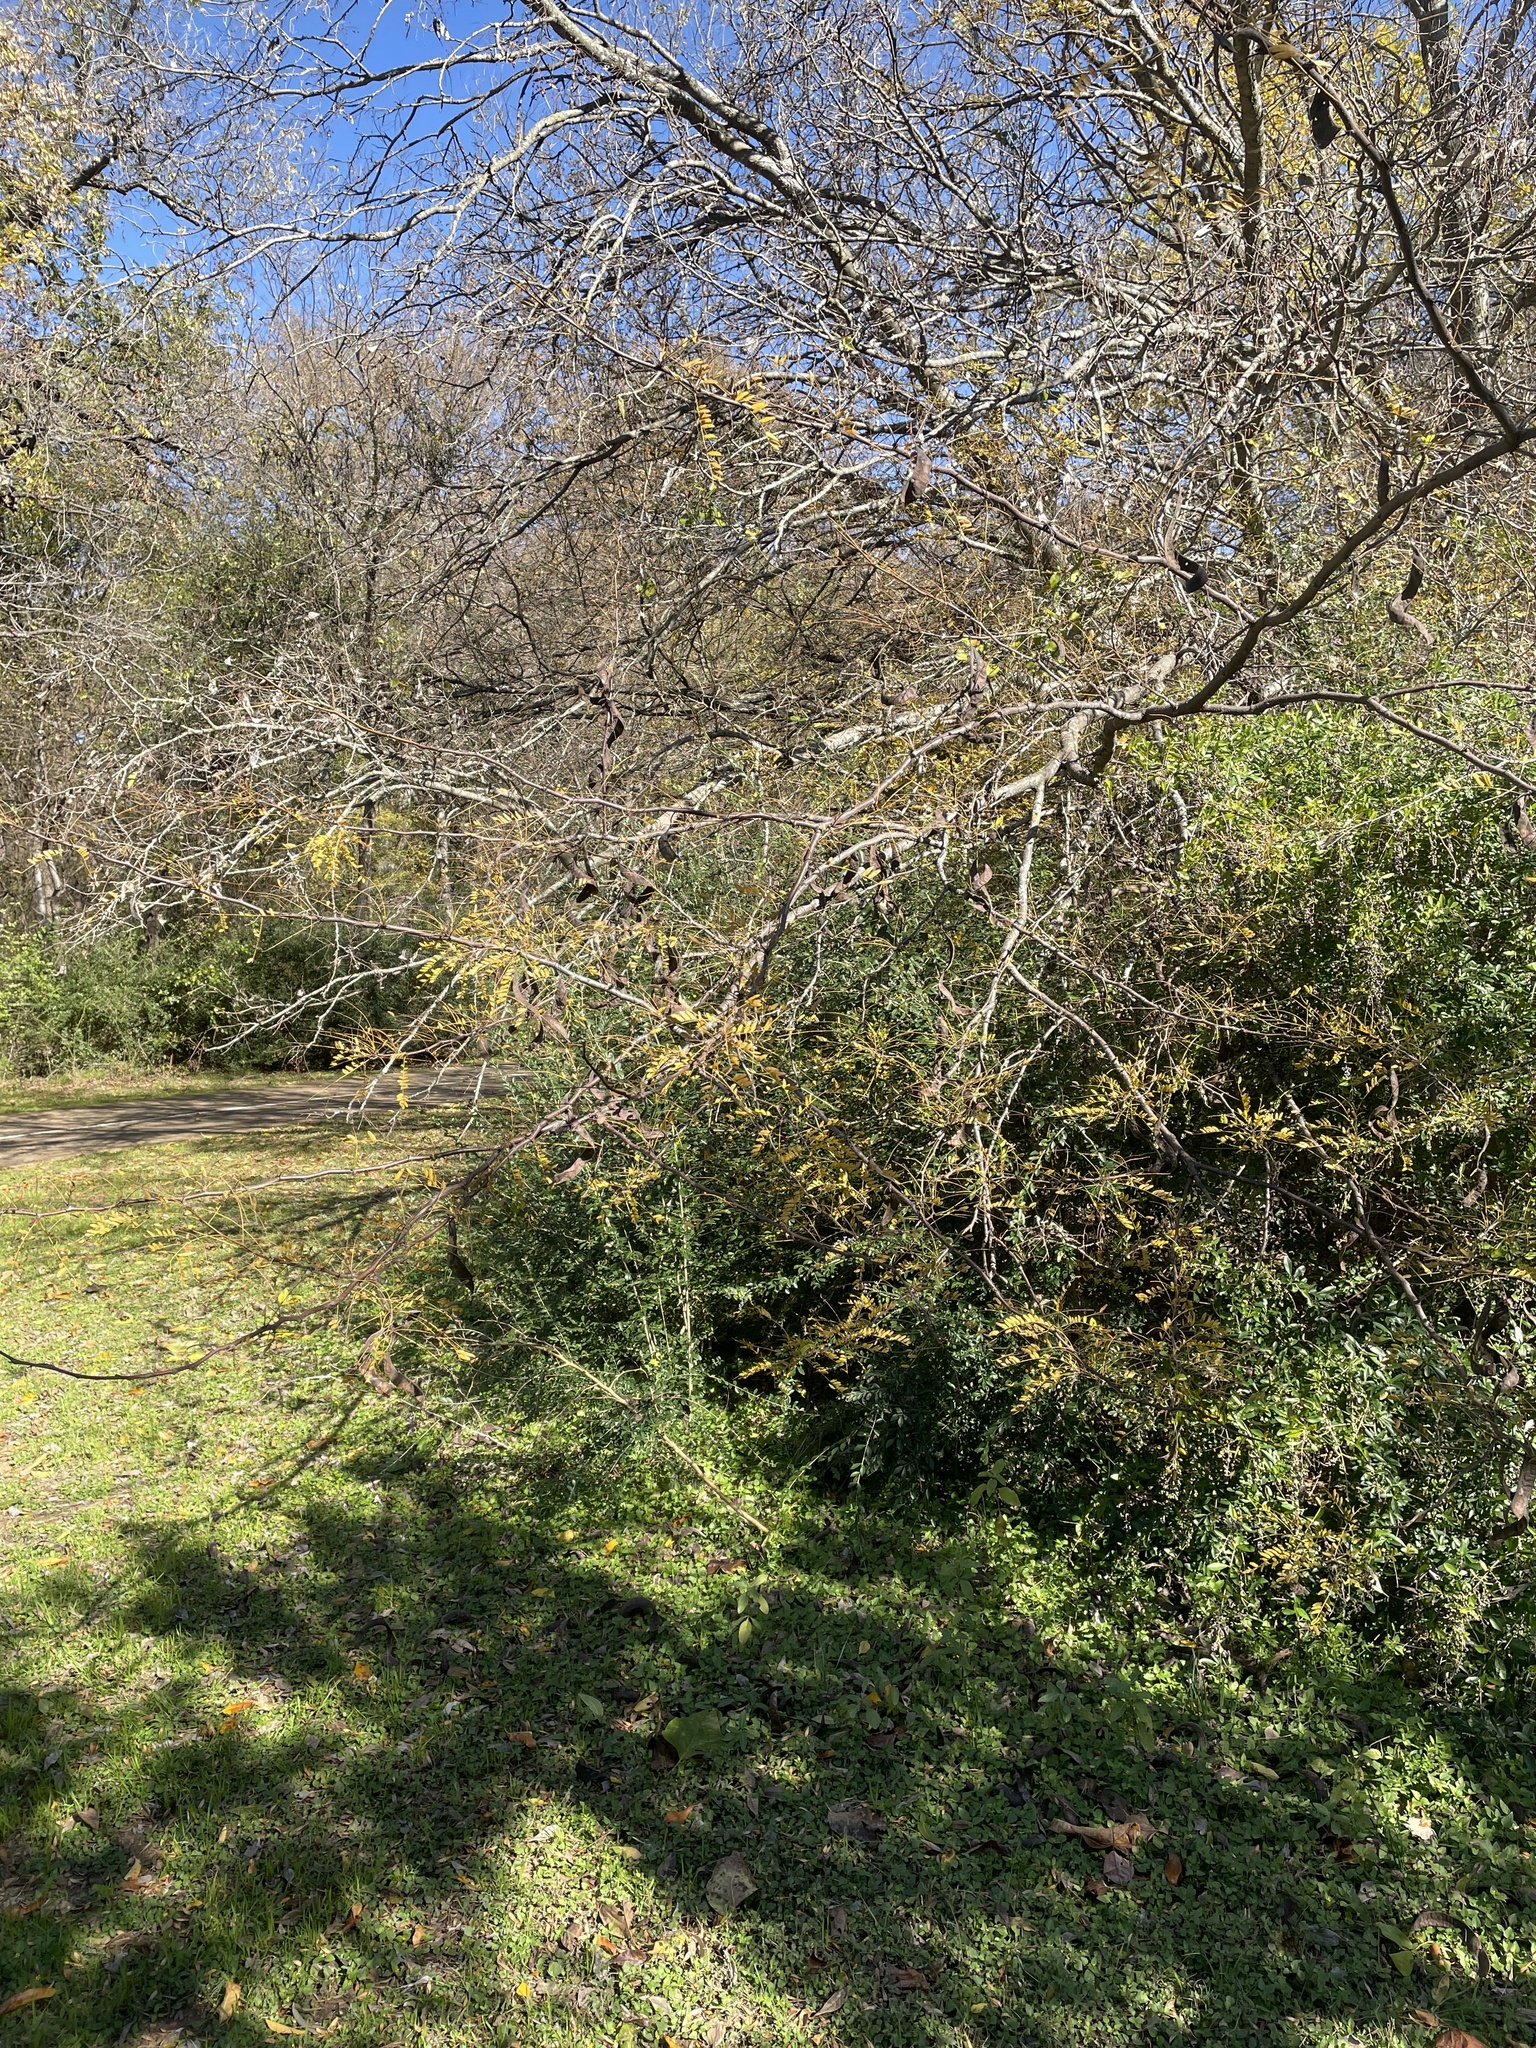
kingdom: Plantae
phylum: Tracheophyta
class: Magnoliopsida
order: Fabales
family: Fabaceae
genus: Gleditsia
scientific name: Gleditsia triacanthos
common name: Common honeylocust
